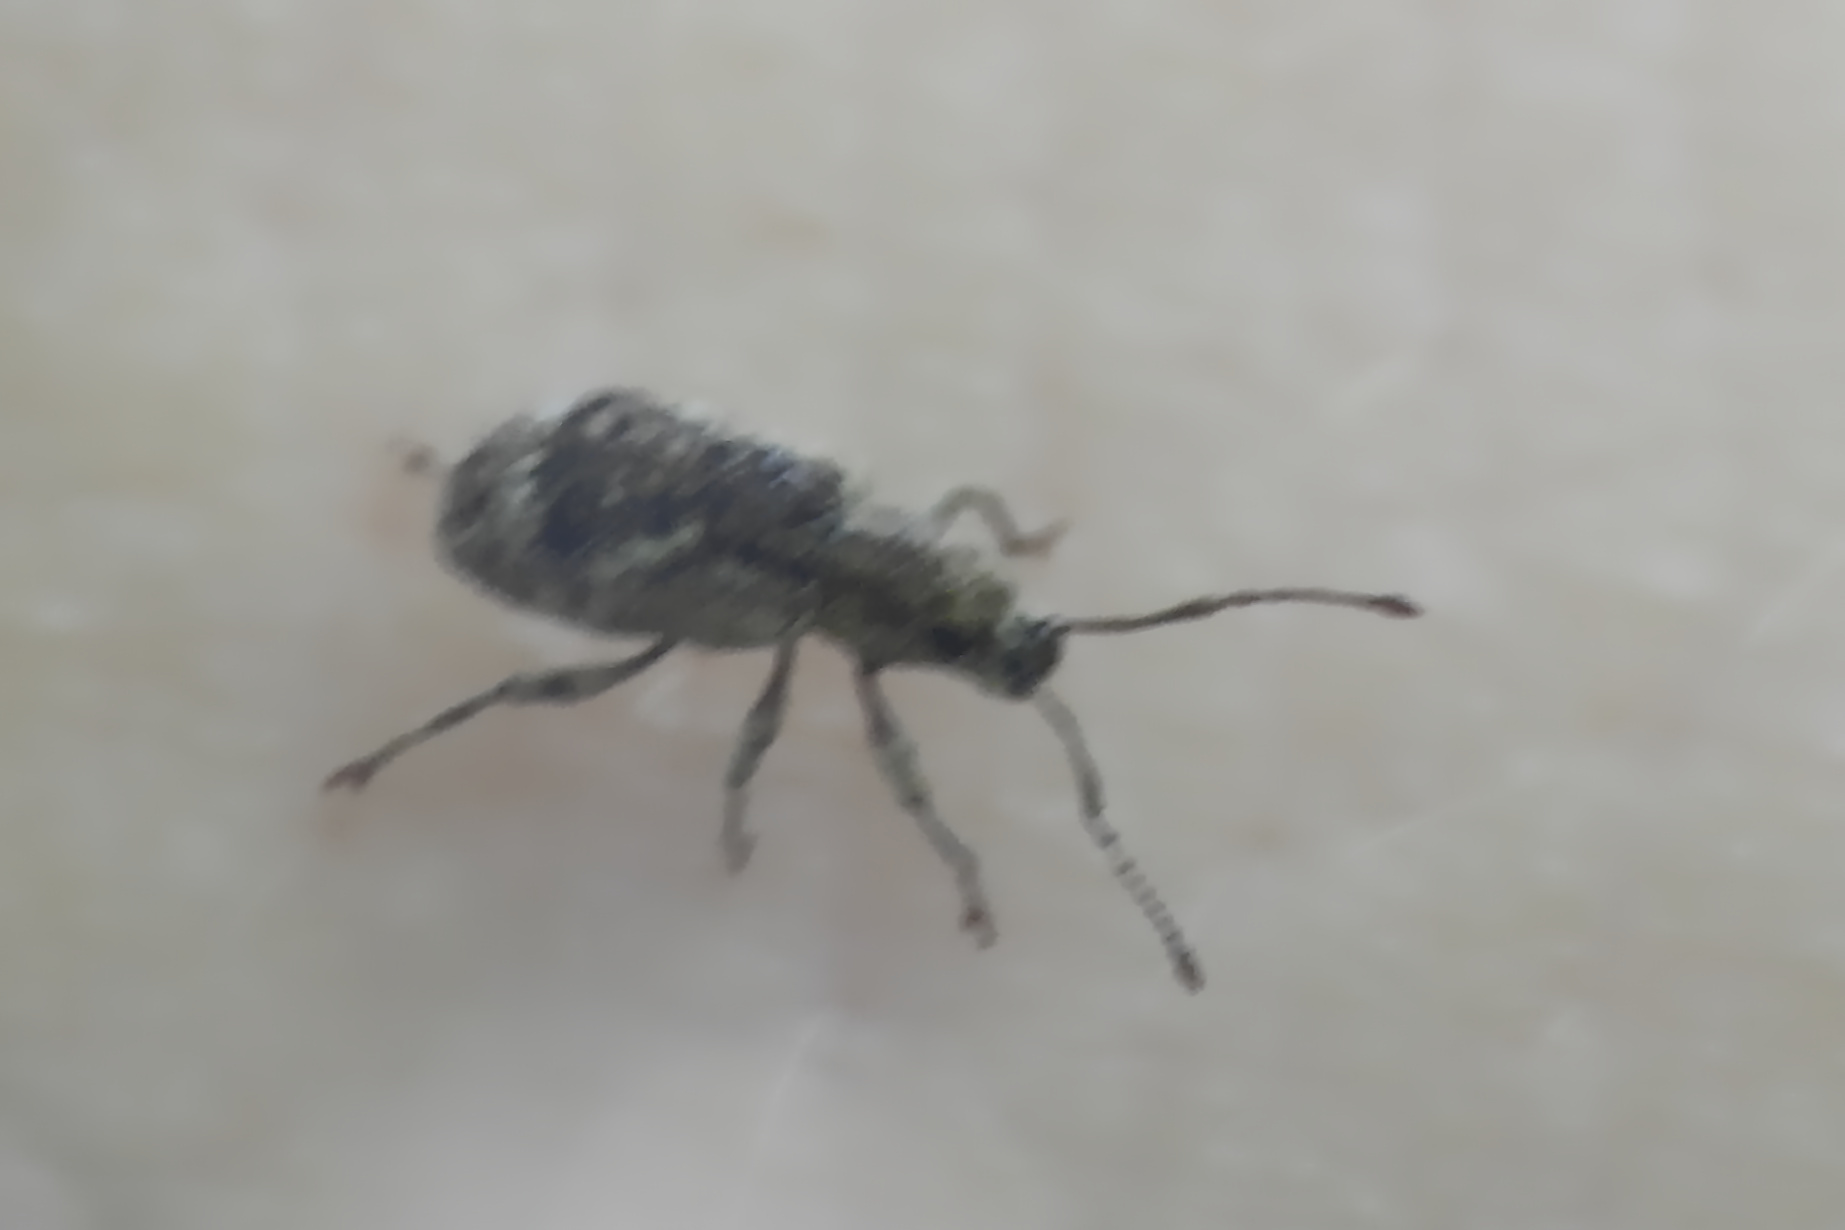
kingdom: Animalia
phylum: Arthropoda
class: Insecta
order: Coleoptera
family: Curculionidae
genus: Pseudoedophrys
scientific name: Pseudoedophrys hilleri
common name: Weevil
